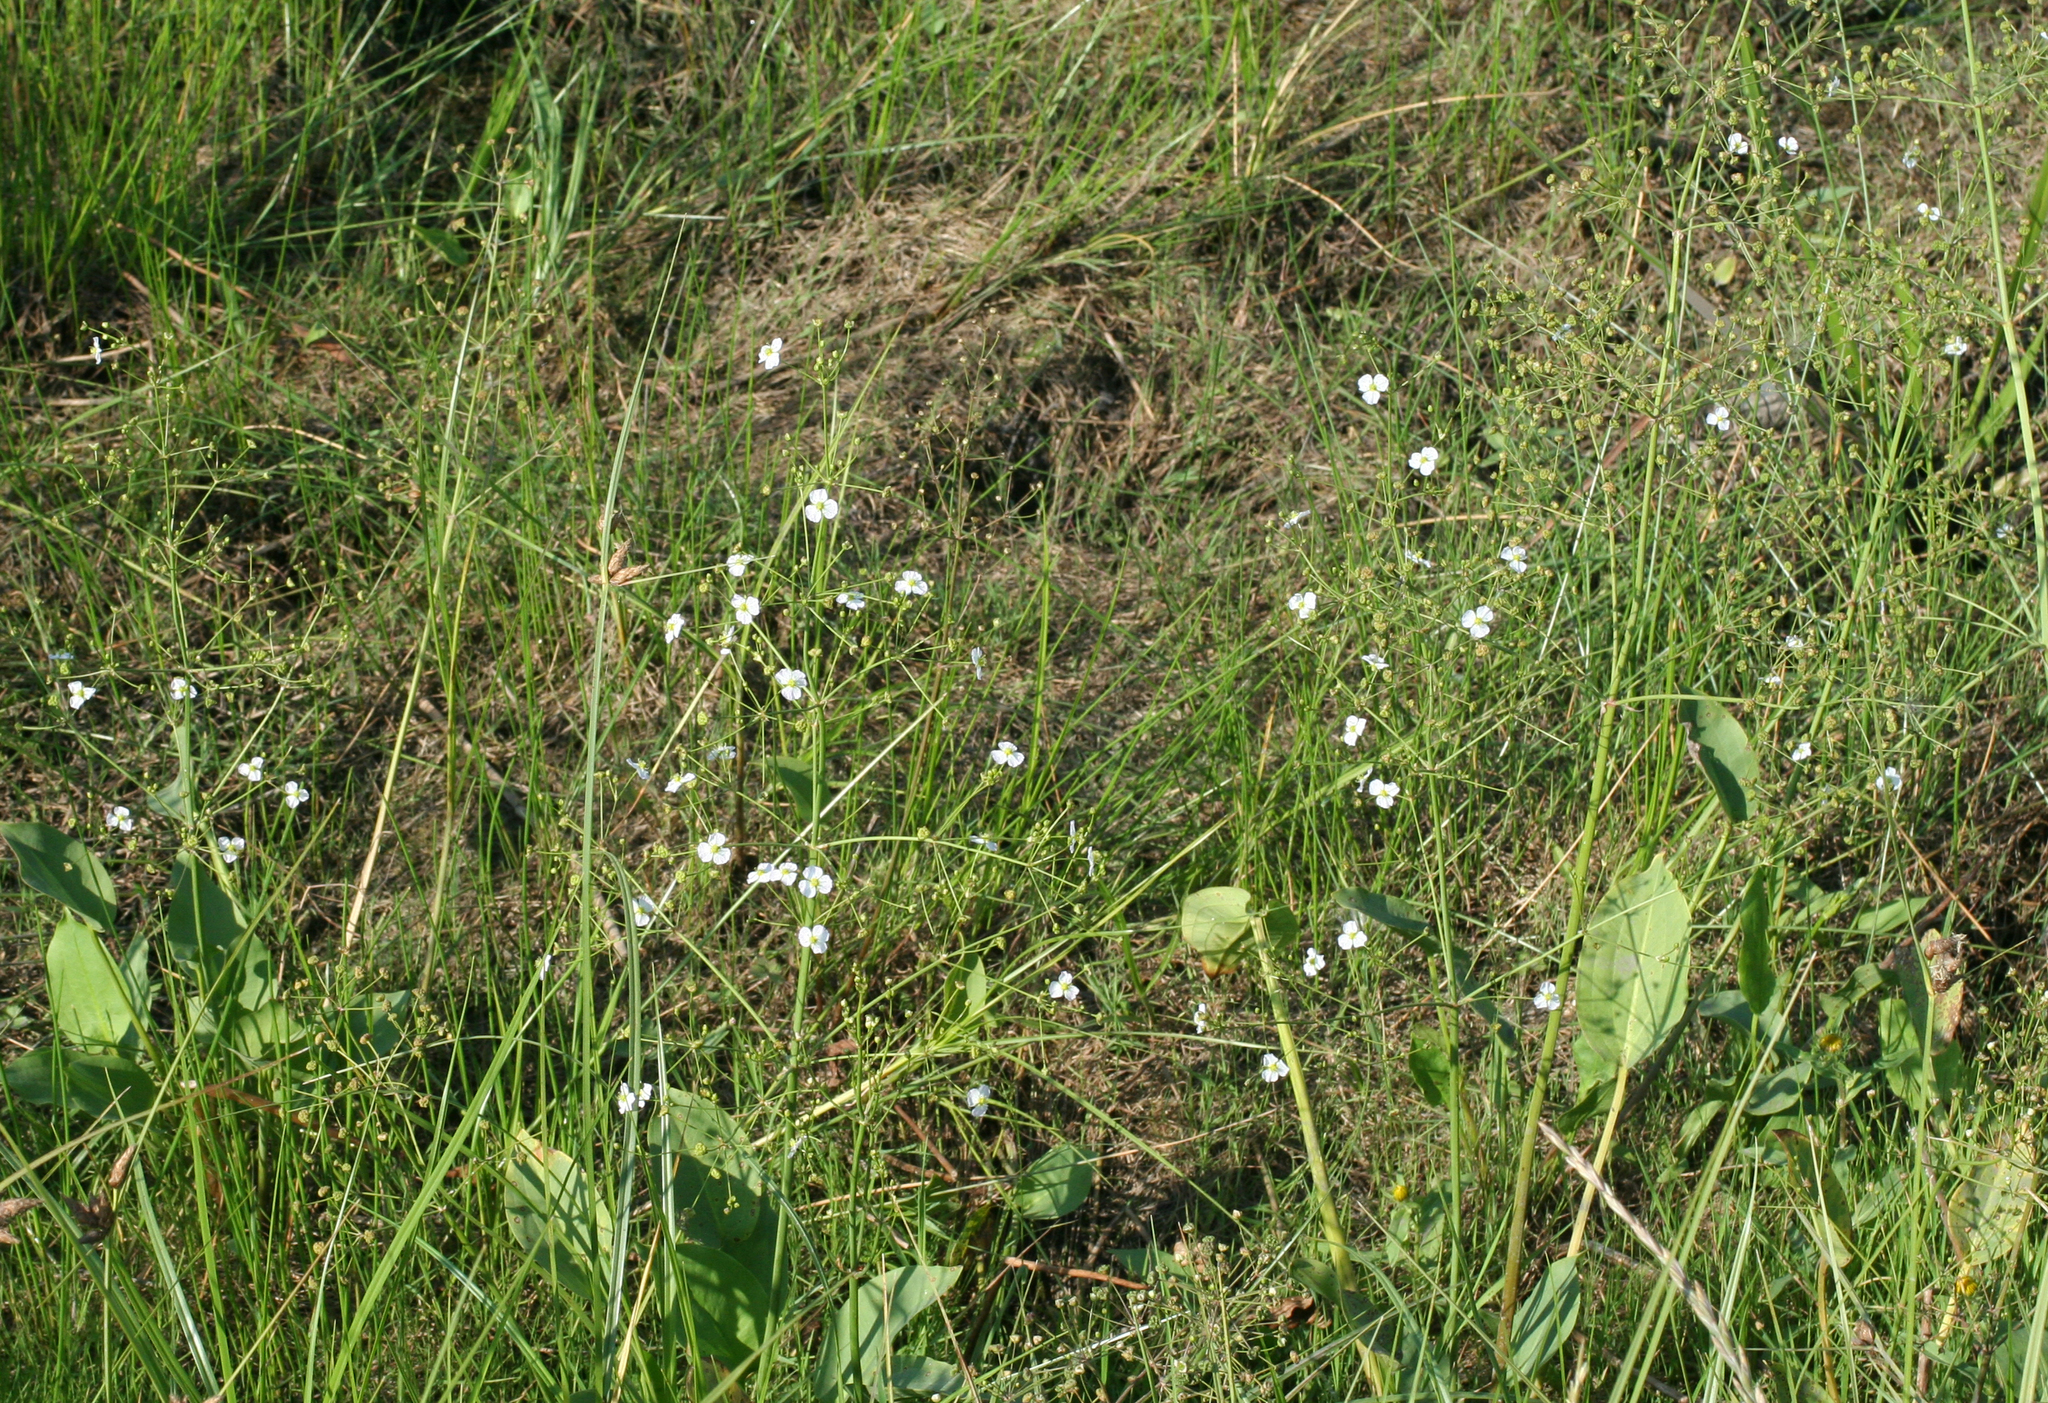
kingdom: Plantae
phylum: Tracheophyta
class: Liliopsida
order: Alismatales
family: Alismataceae
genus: Alisma
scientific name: Alisma plantago-aquatica
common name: Water-plantain
